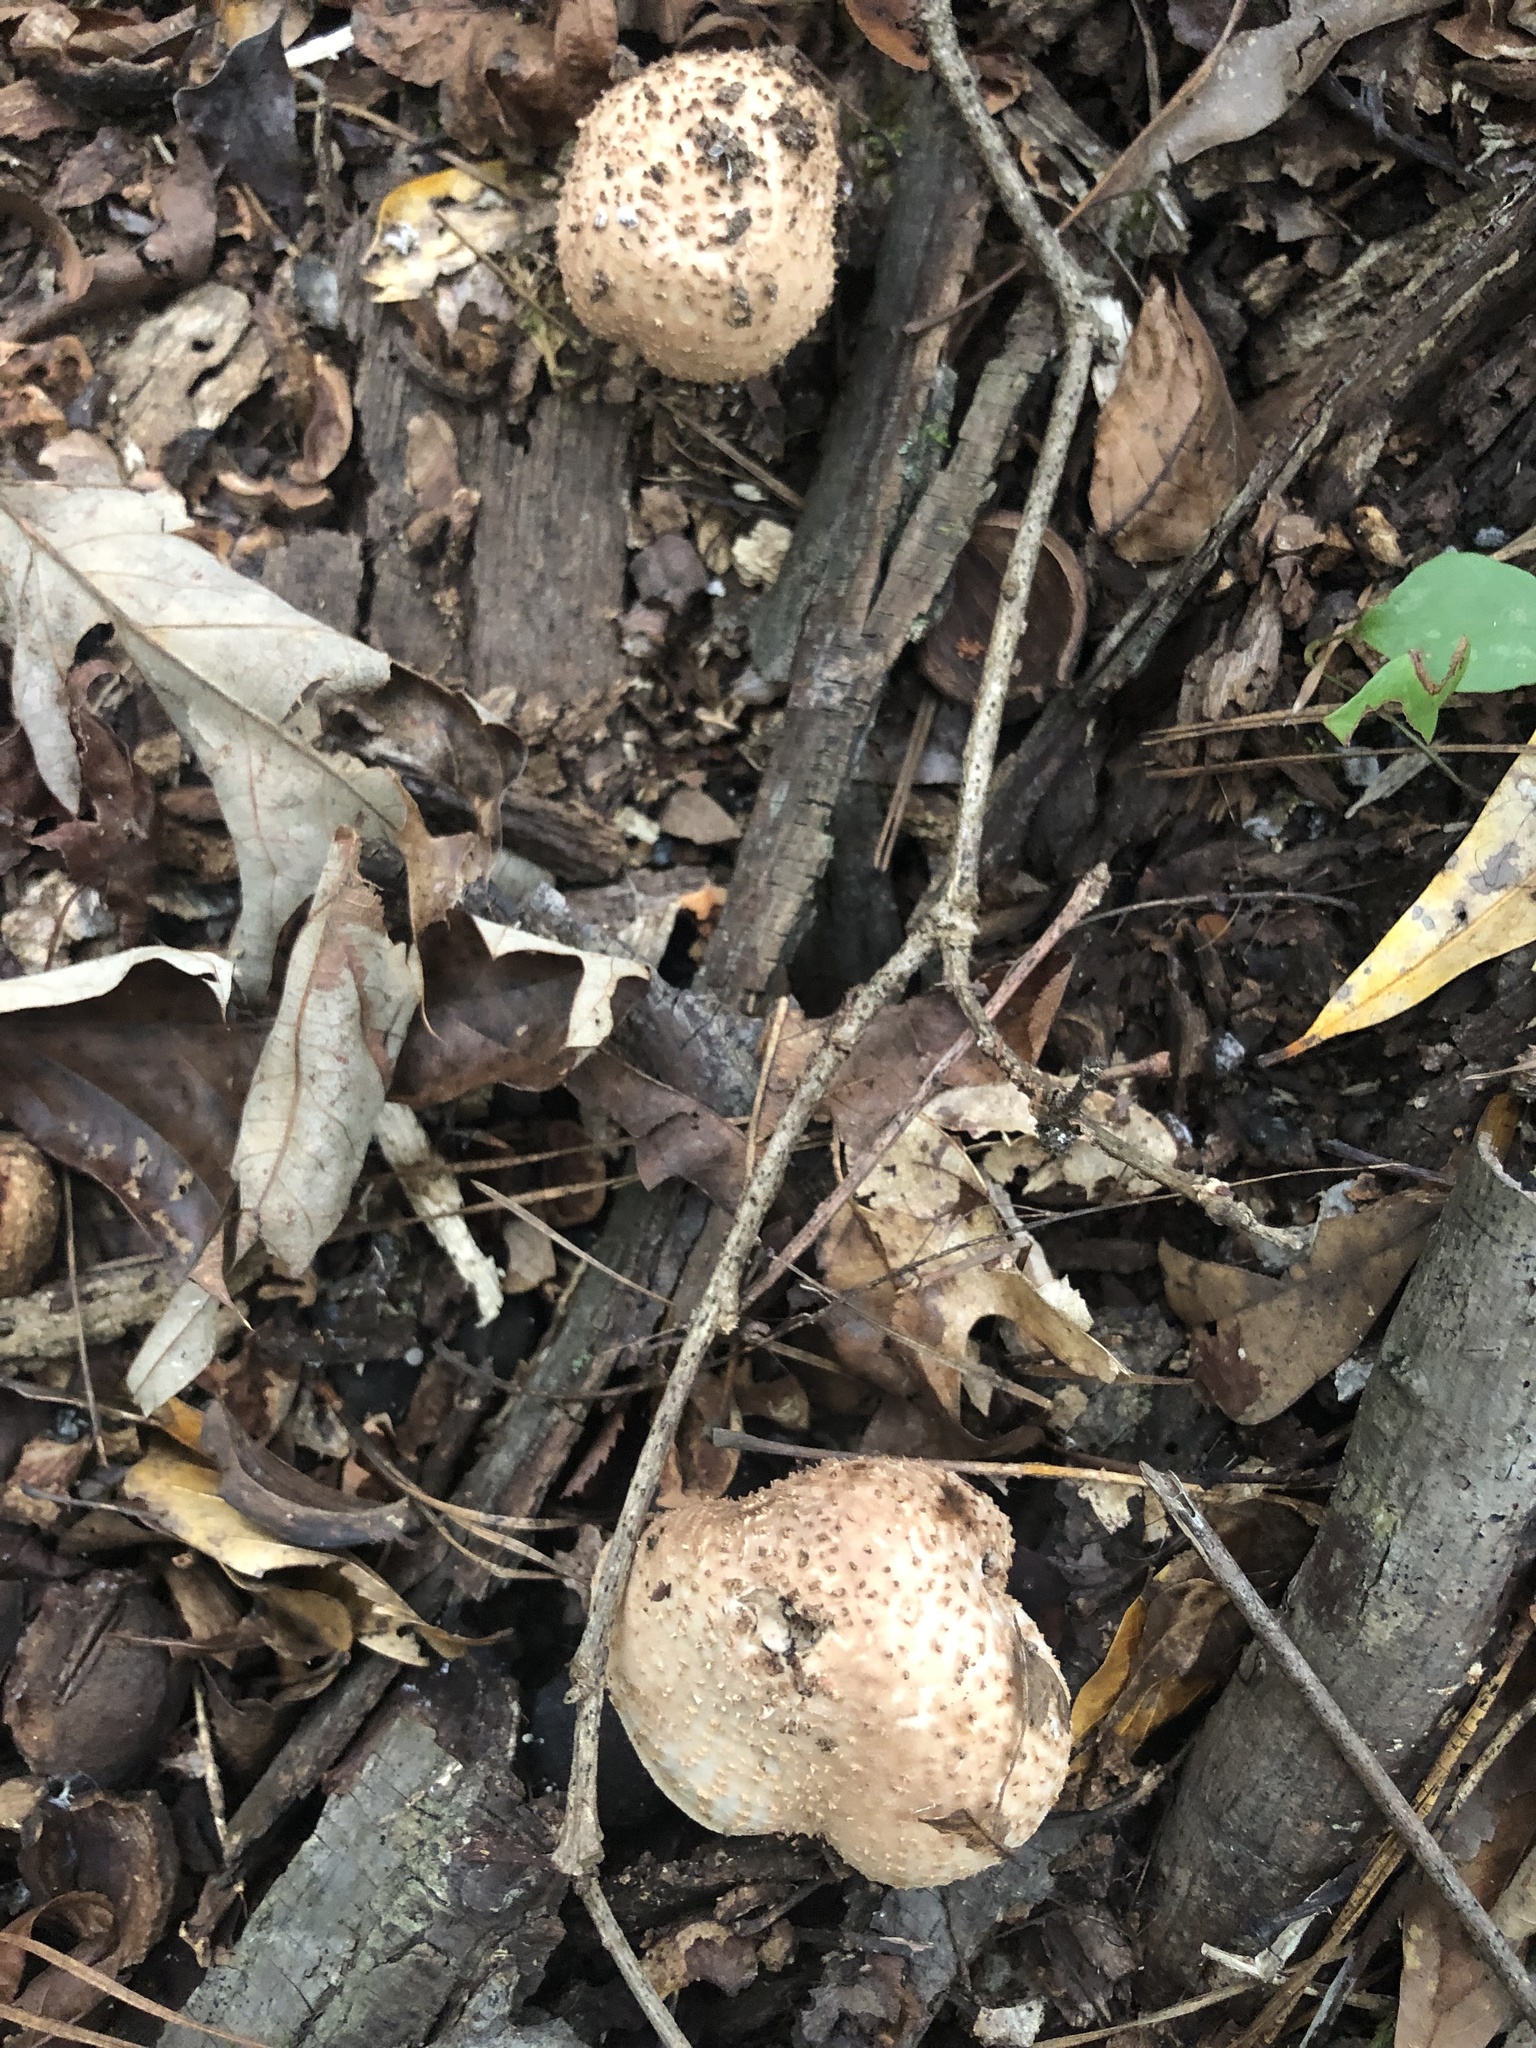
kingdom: Fungi
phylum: Basidiomycota
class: Agaricomycetes
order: Agaricales
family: Agaricaceae
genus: Echinoderma
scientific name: Echinoderma asperum
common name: Freckled dapperling
